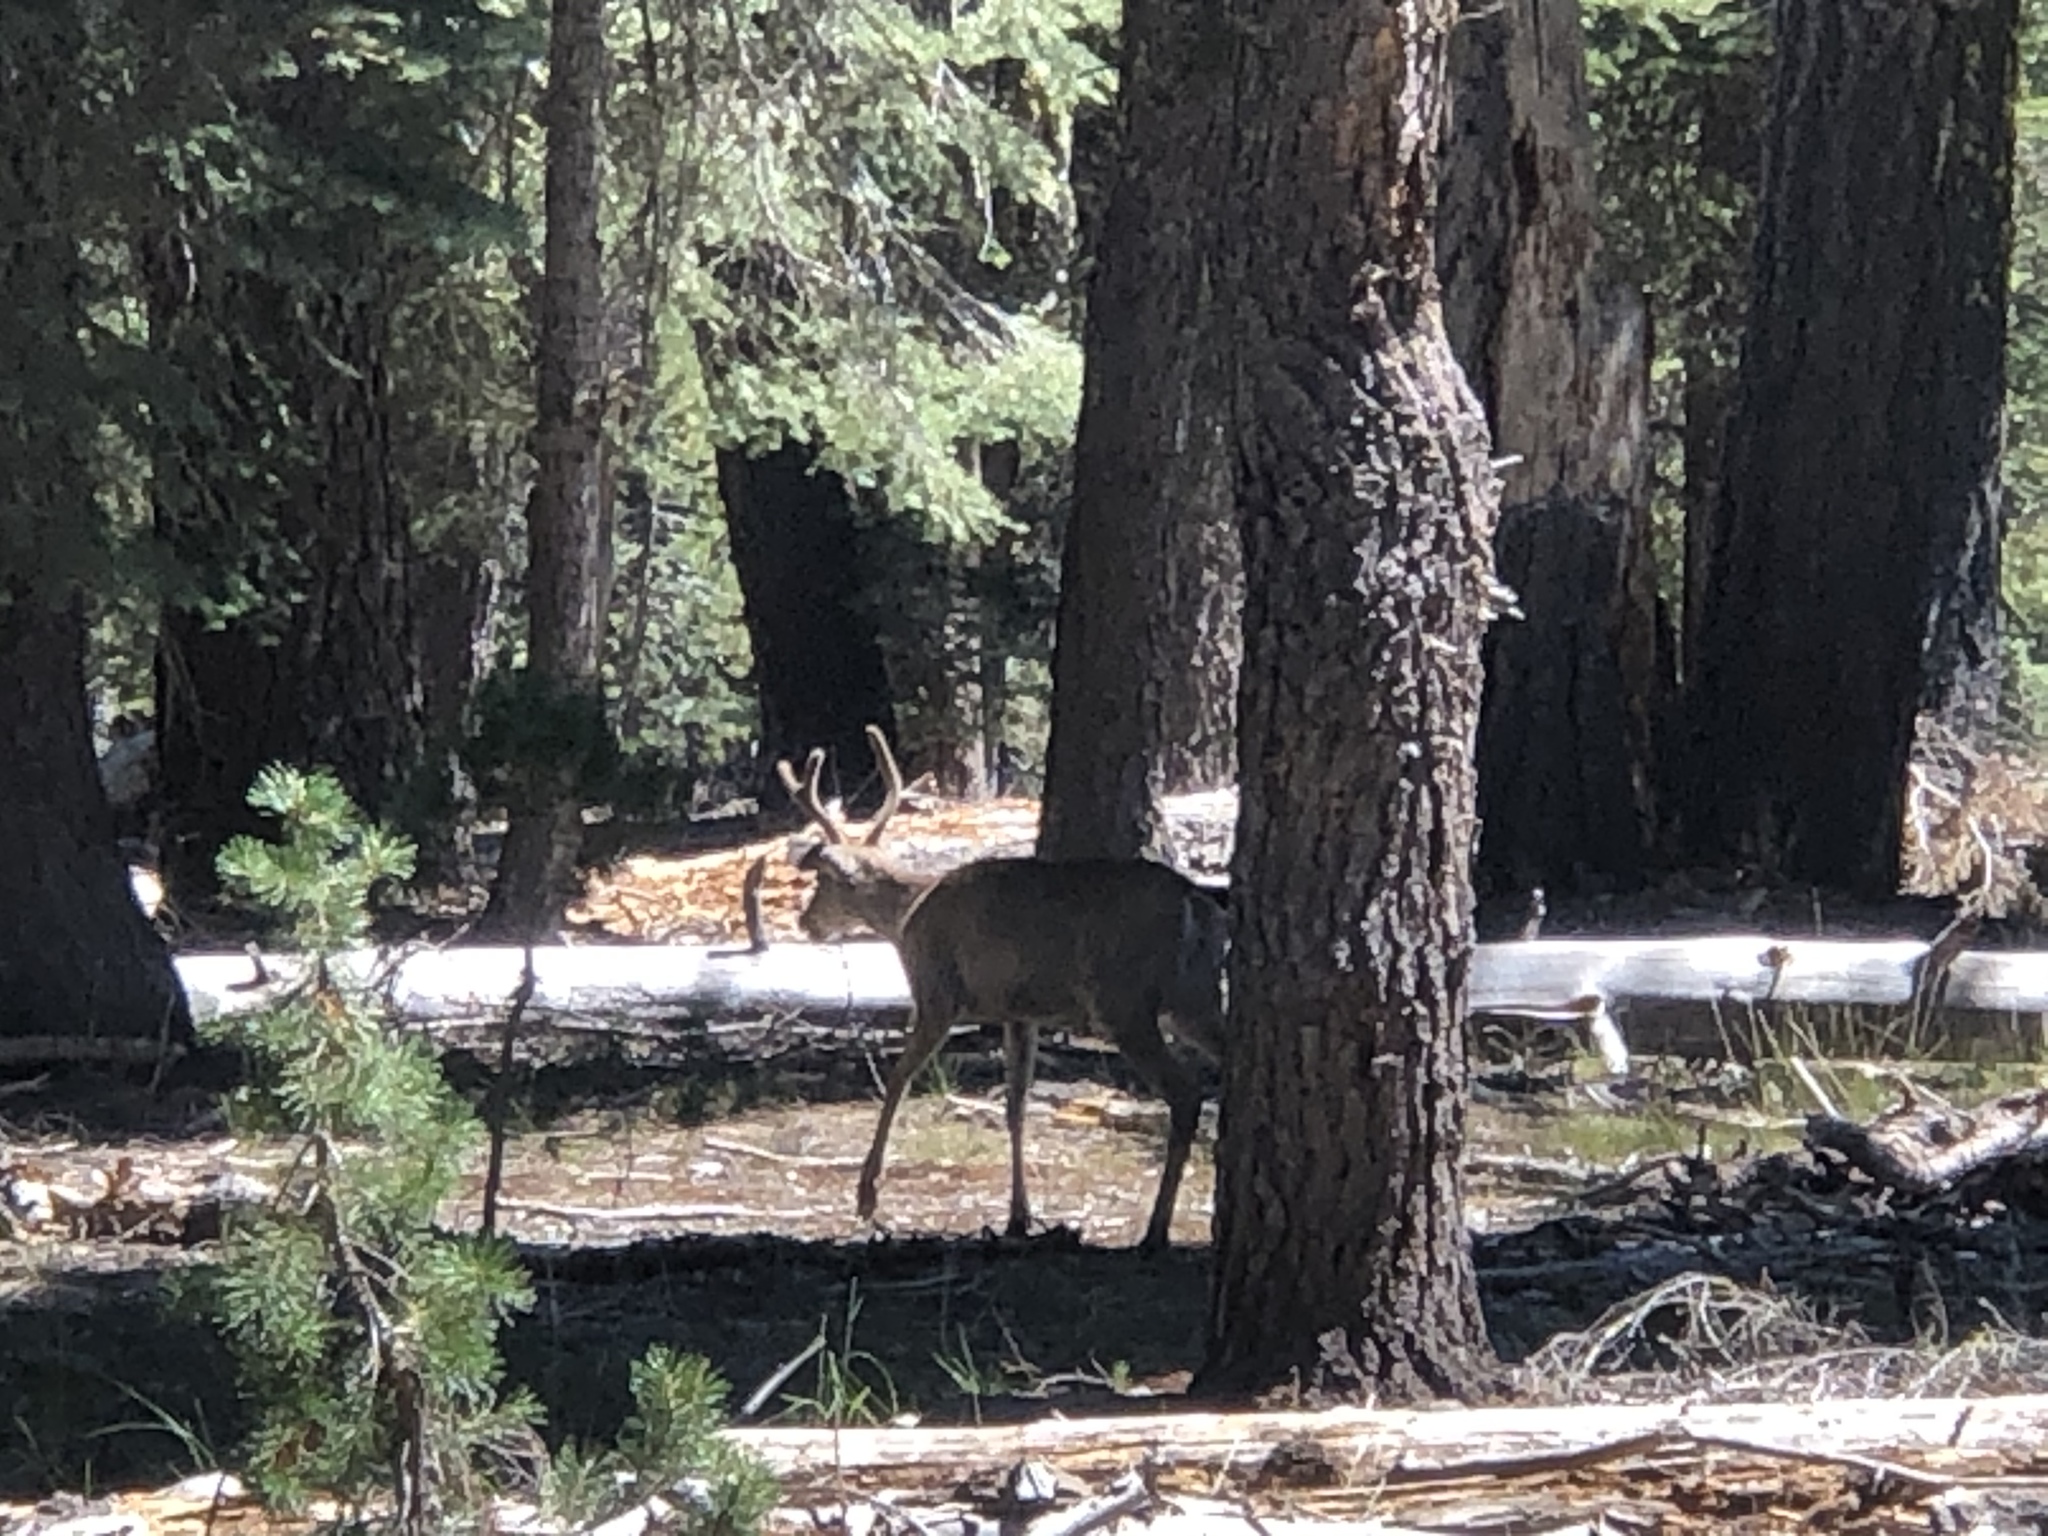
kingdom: Animalia
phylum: Chordata
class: Mammalia
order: Artiodactyla
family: Cervidae
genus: Odocoileus
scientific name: Odocoileus hemionus
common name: Mule deer
